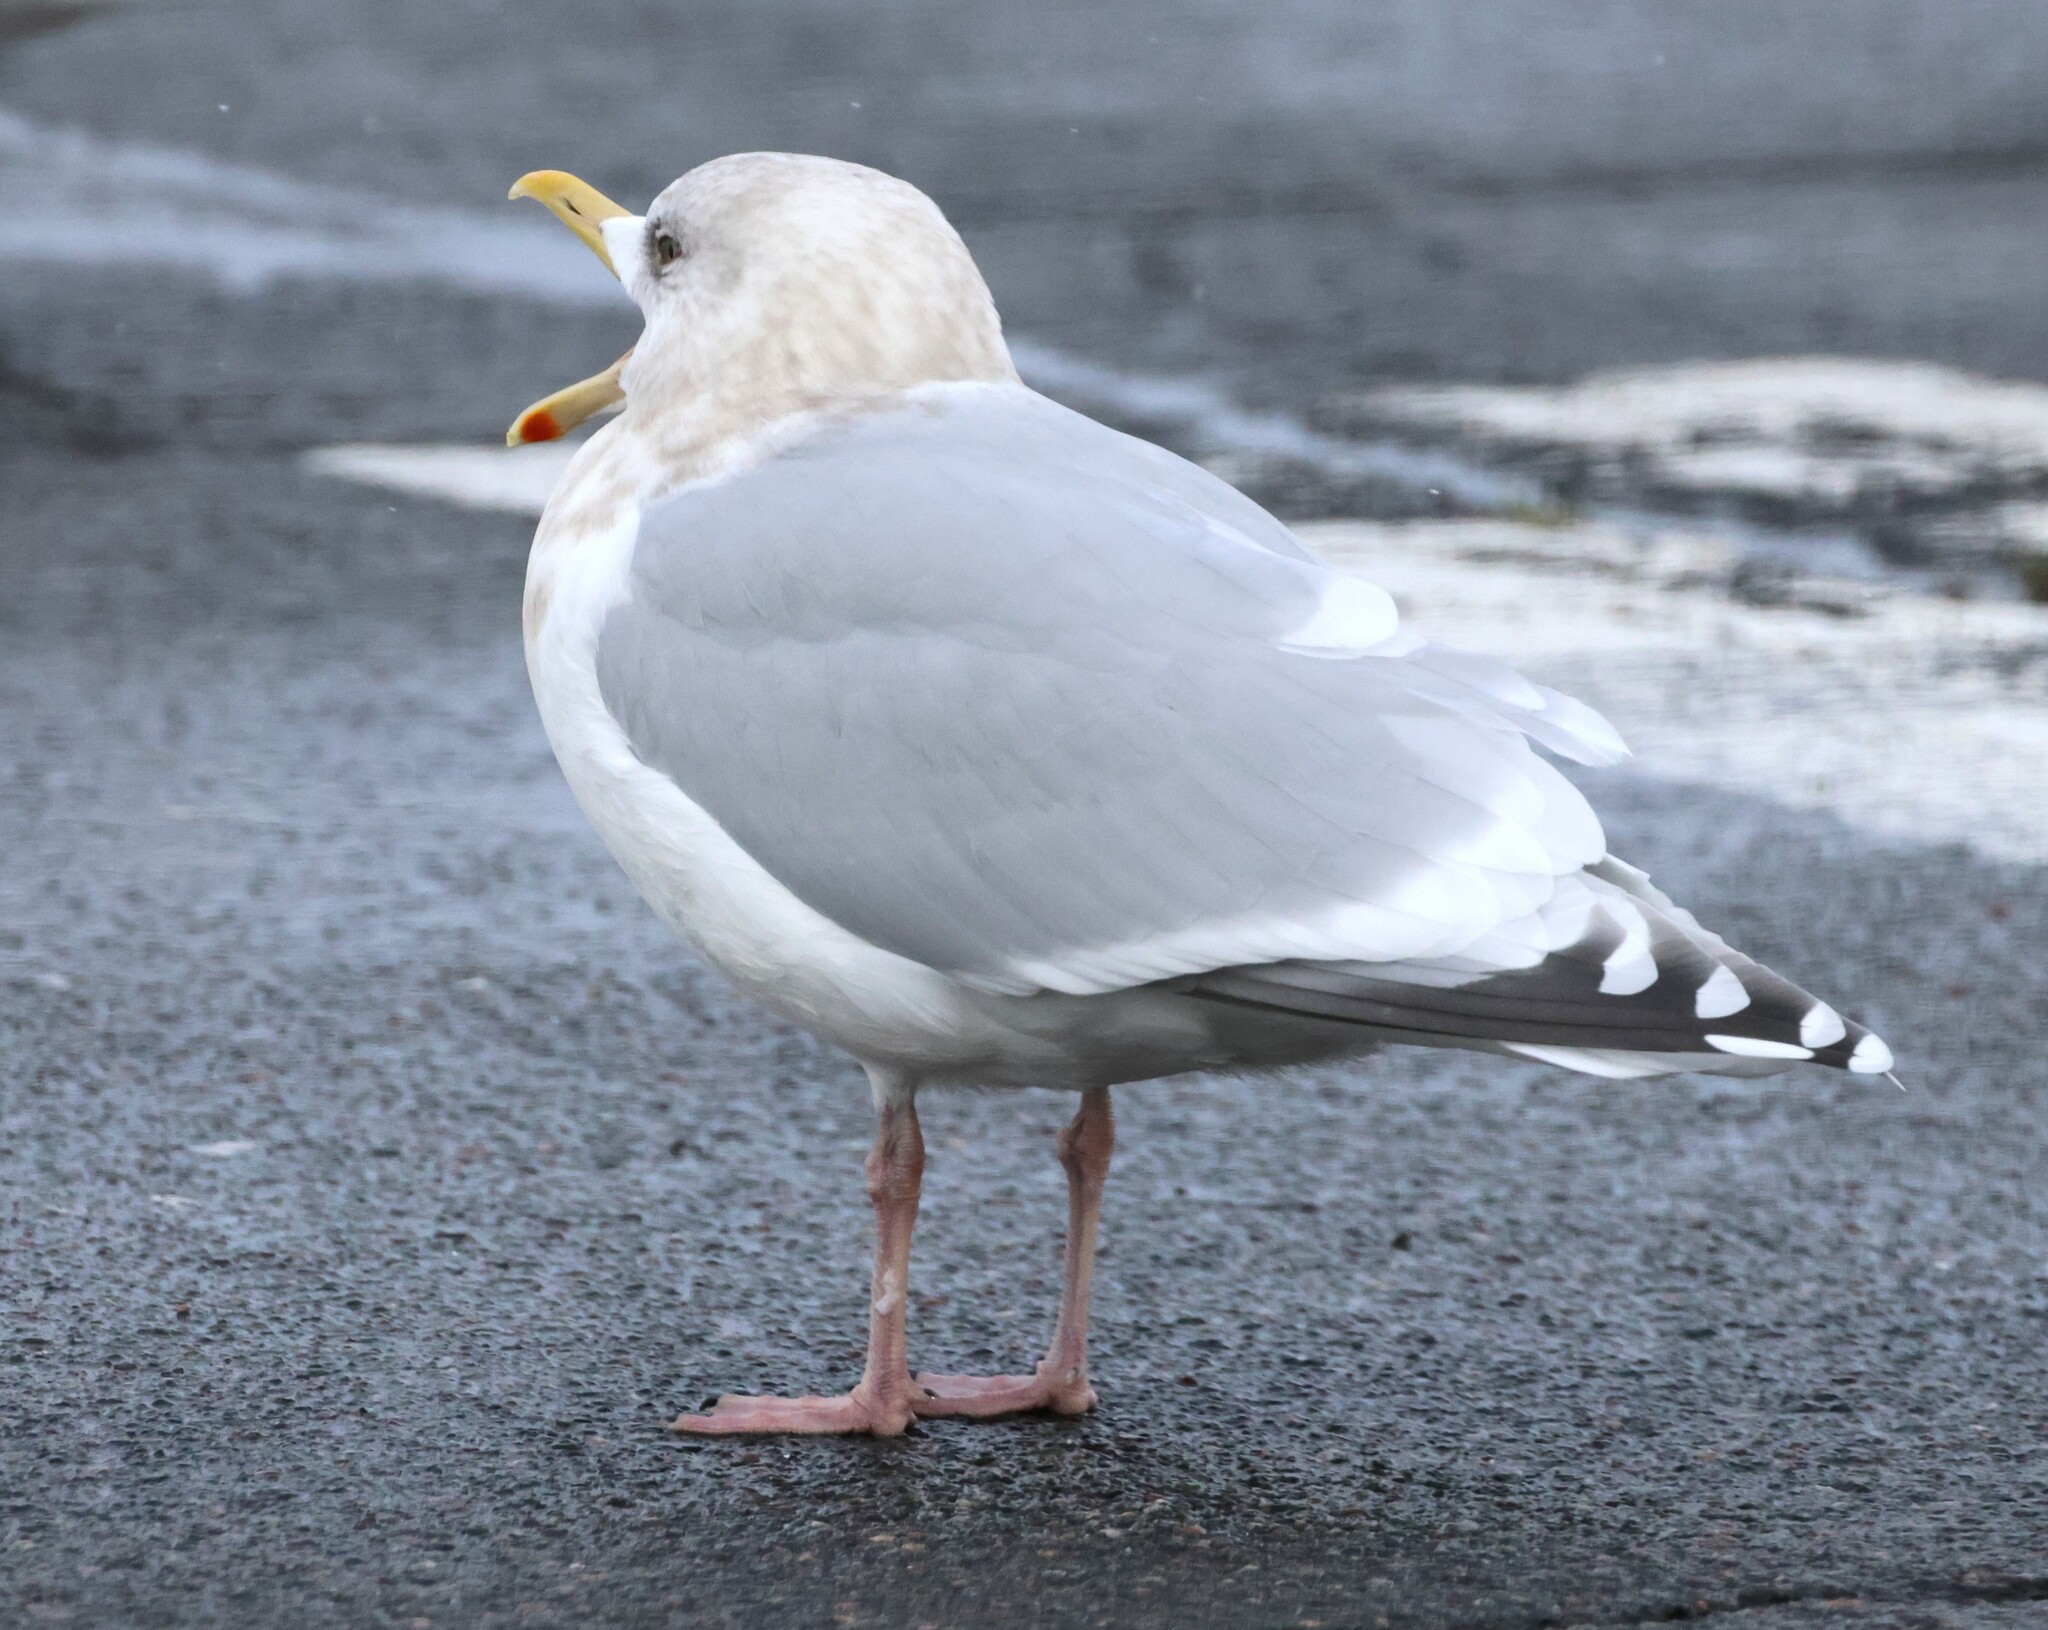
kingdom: Animalia
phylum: Chordata
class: Aves
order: Charadriiformes
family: Laridae
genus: Larus
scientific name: Larus glaucoides
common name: Iceland gull
